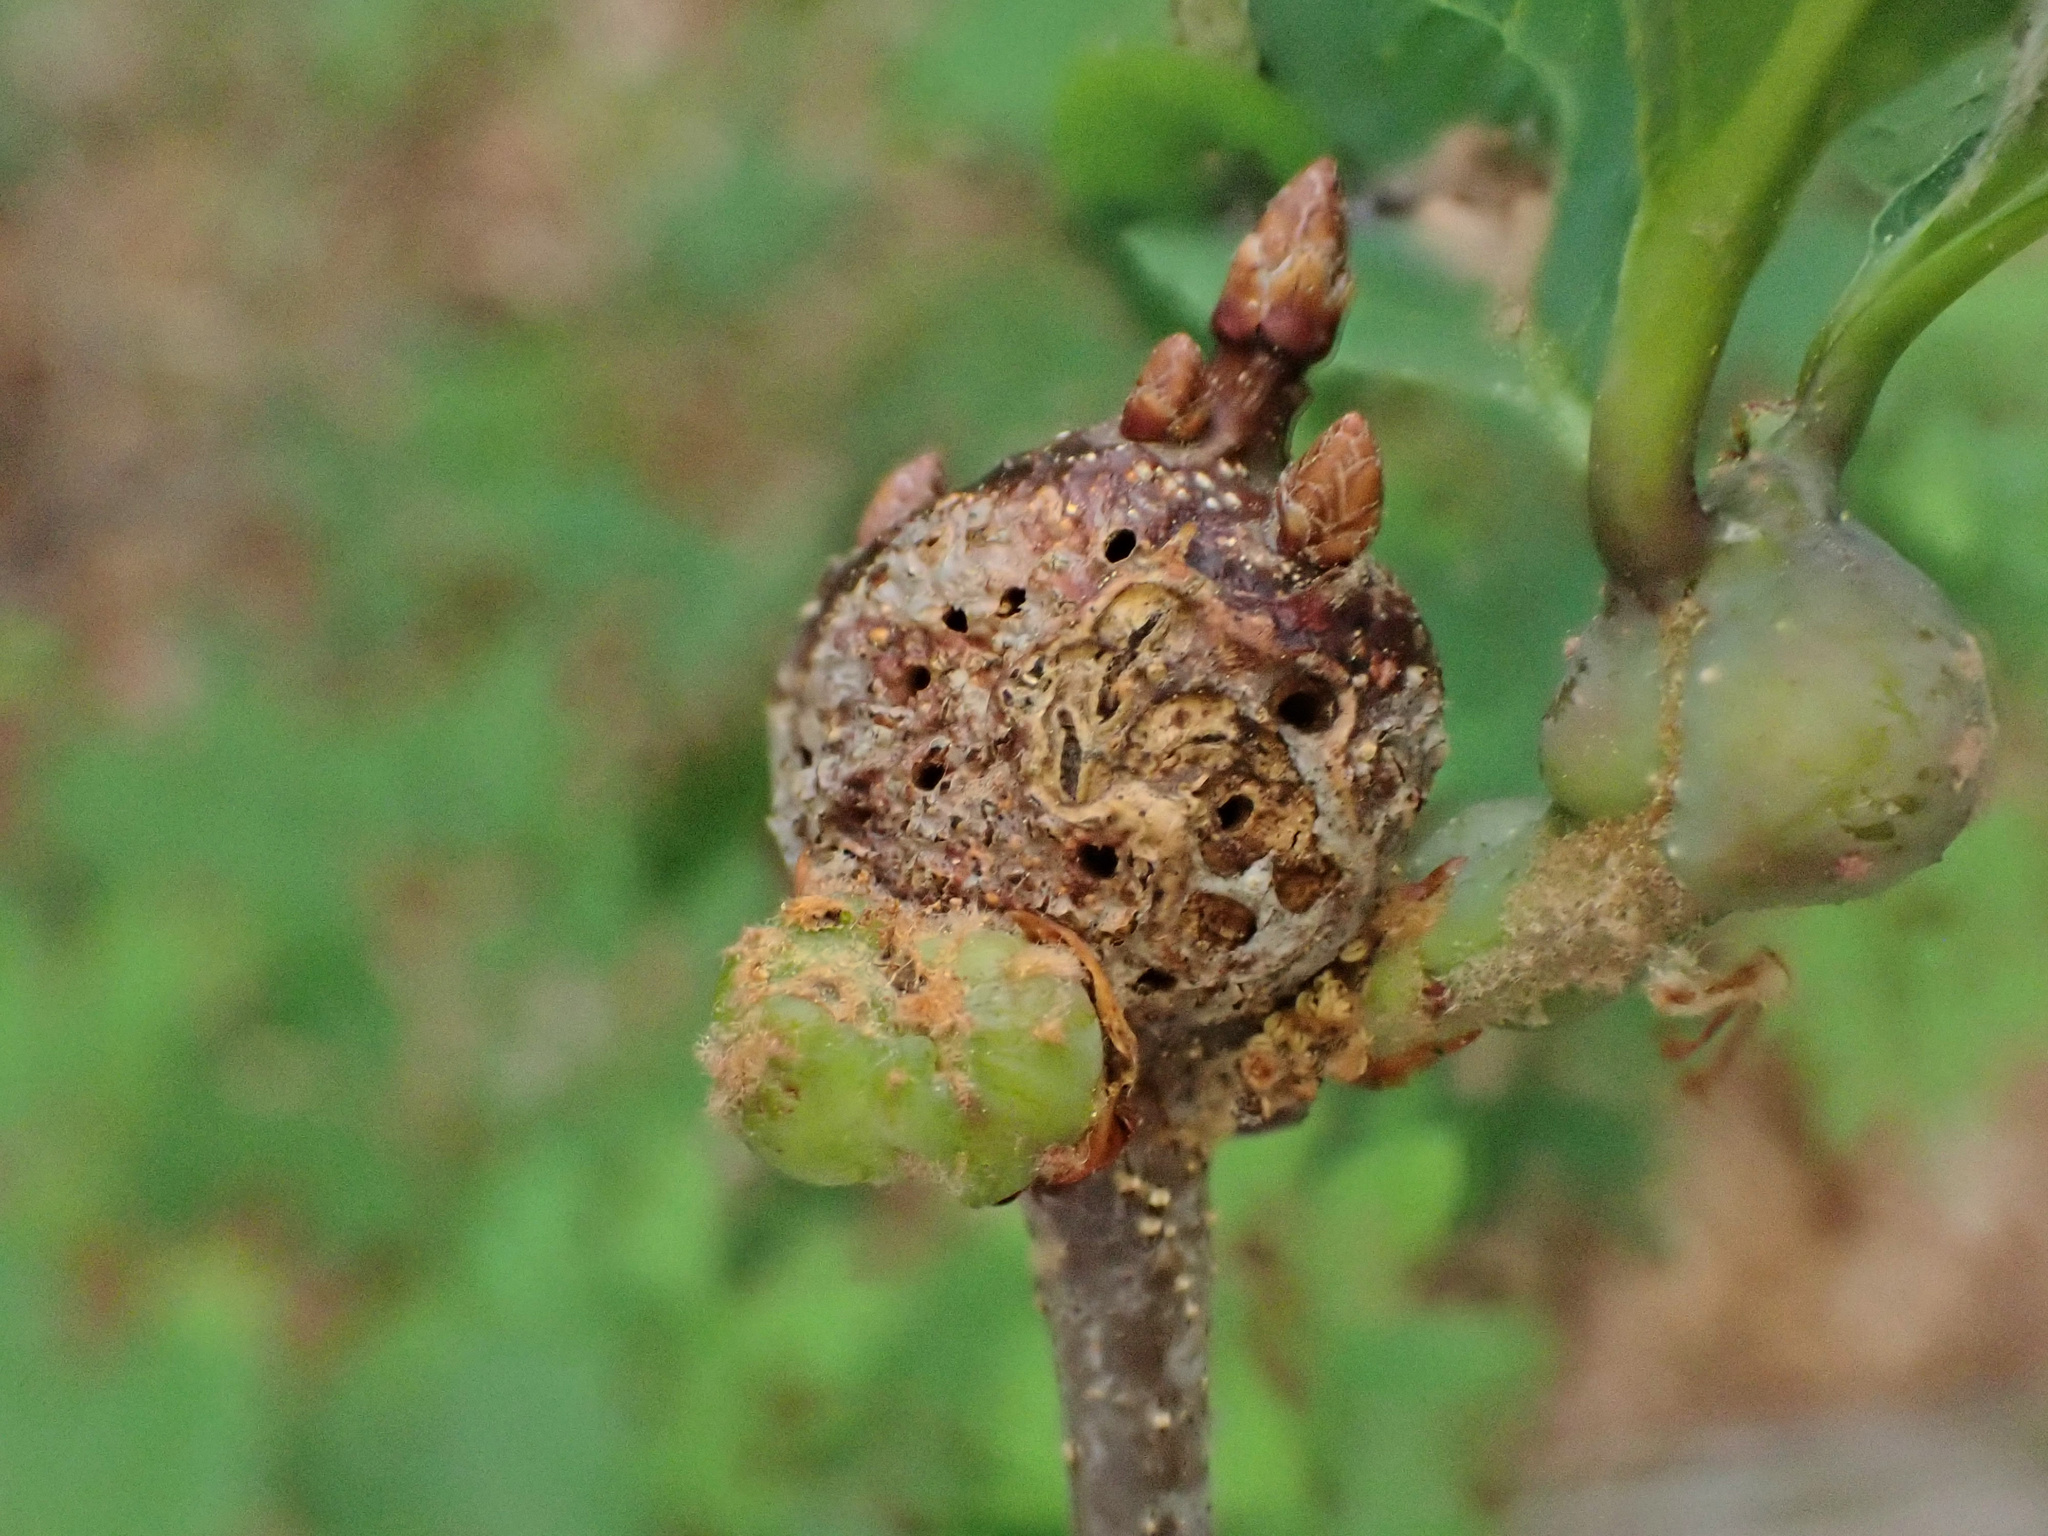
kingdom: Animalia
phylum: Arthropoda
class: Insecta
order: Hymenoptera
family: Cynipidae
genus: Neuroterus
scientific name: Neuroterus quercusbaccarum
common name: Common spangle gall
